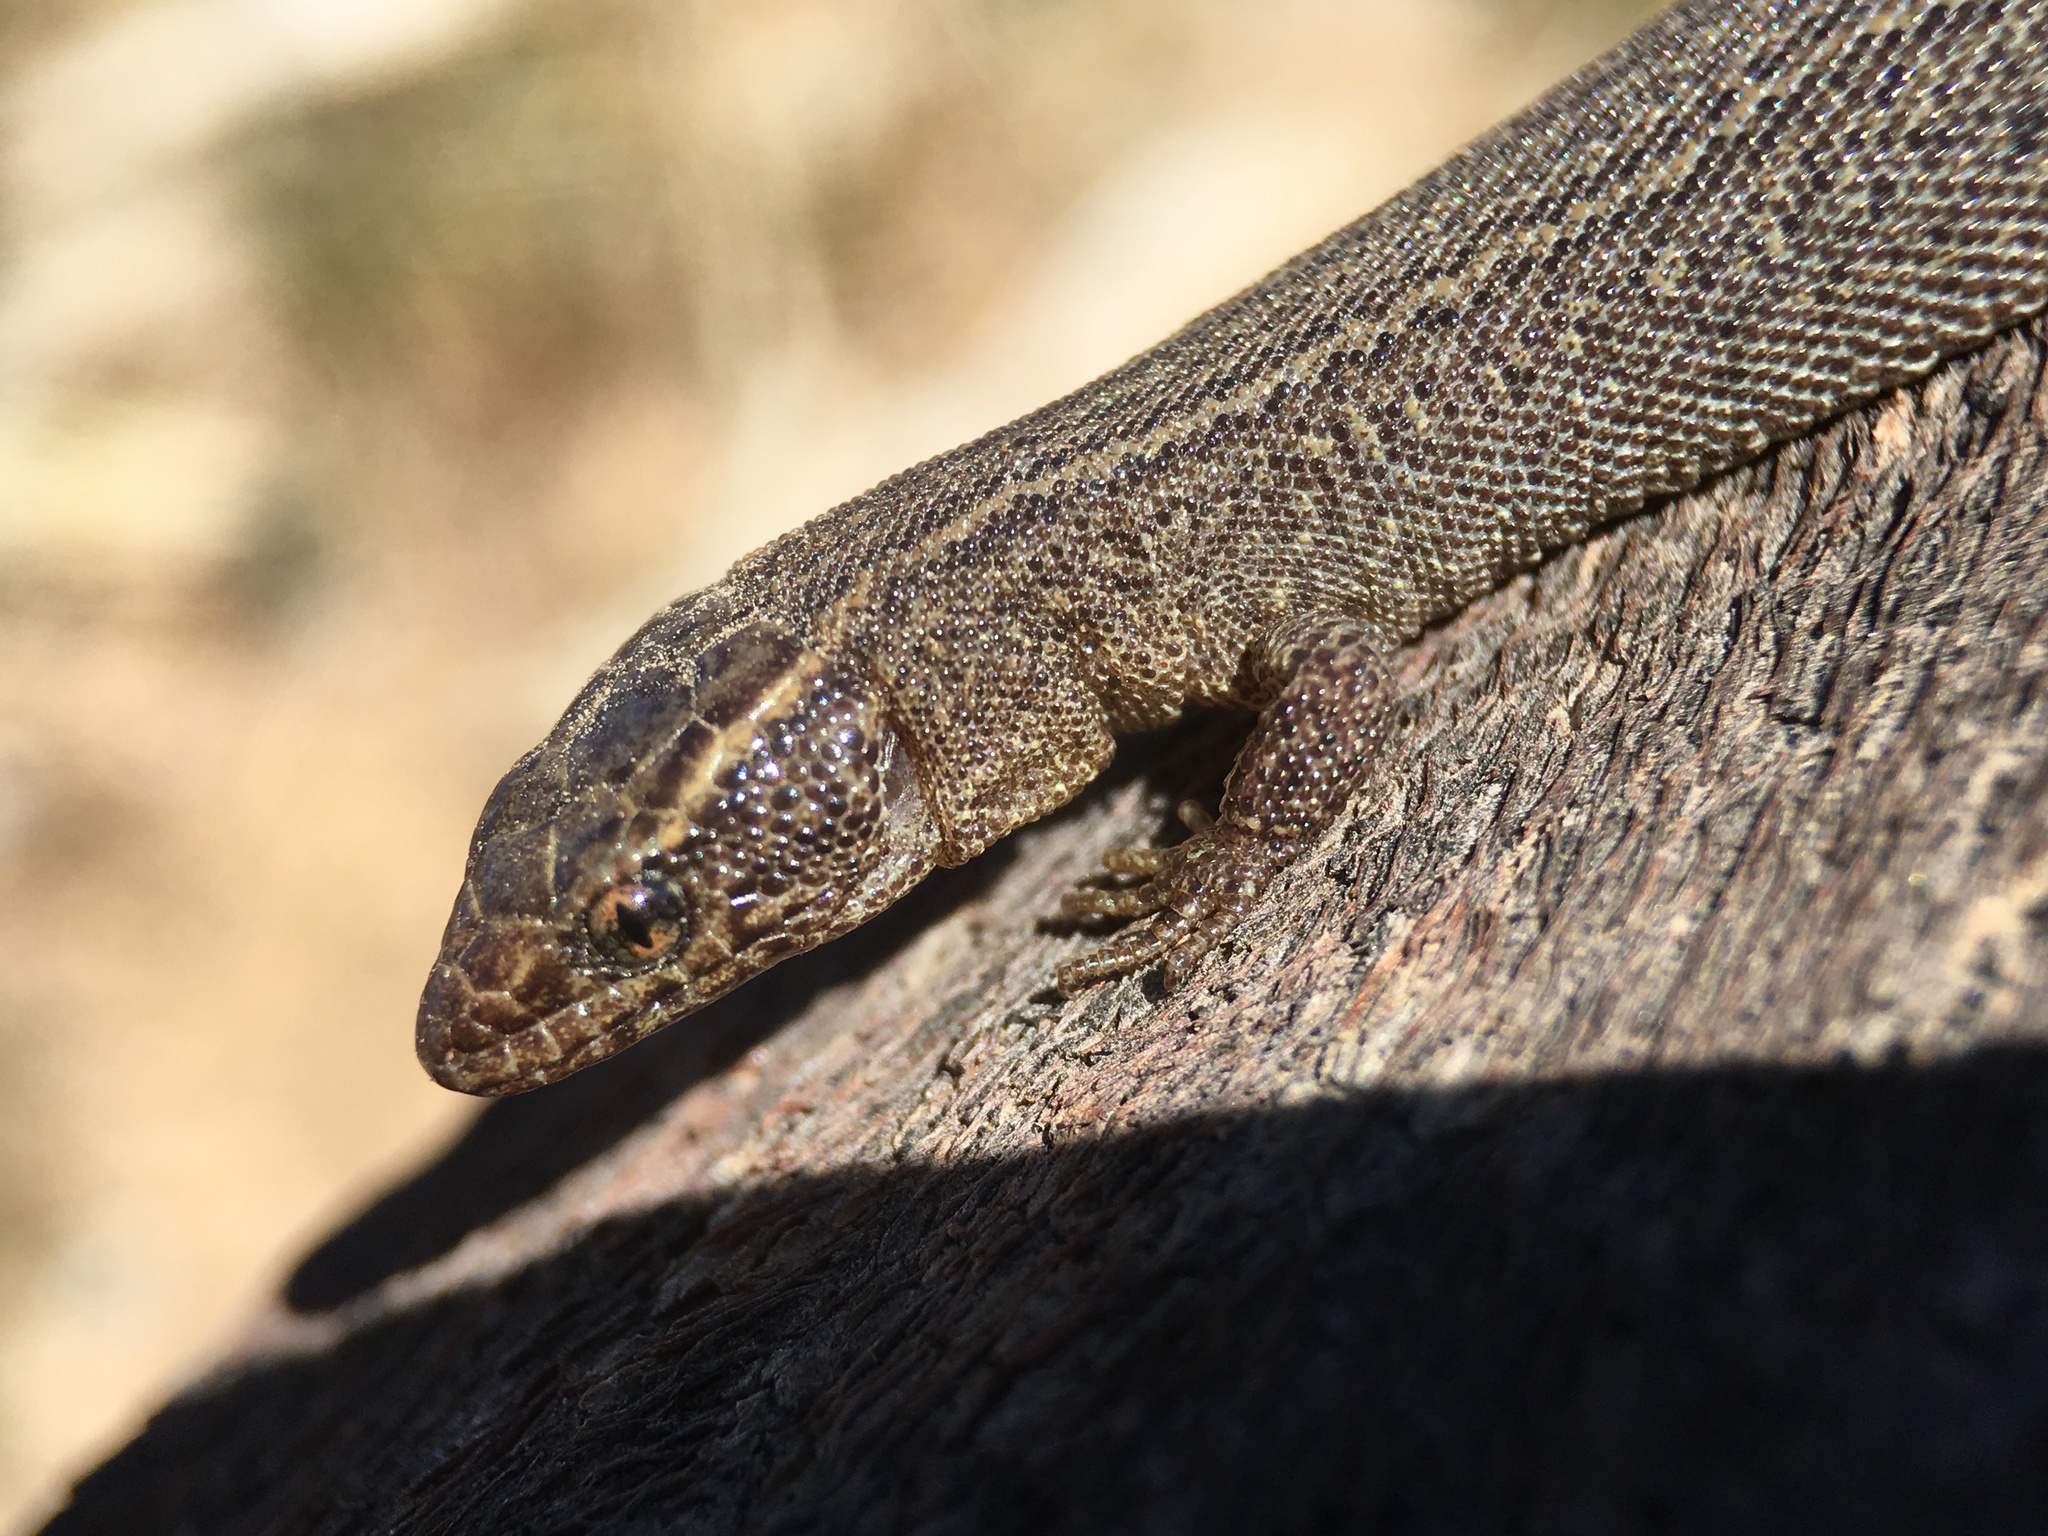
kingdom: Animalia
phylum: Chordata
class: Squamata
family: Xantusiidae
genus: Xantusia
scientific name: Xantusia vigilis
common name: Desert night lizard
